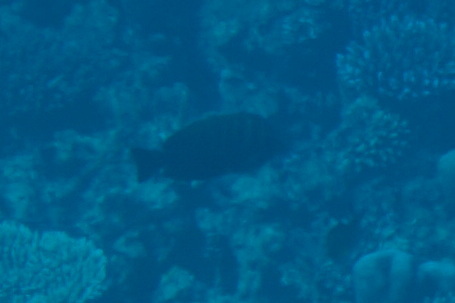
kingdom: Animalia
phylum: Chordata
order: Perciformes
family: Acanthuridae
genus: Zebrasoma
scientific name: Zebrasoma desjardinii
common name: Desjardin's sailfin tang
